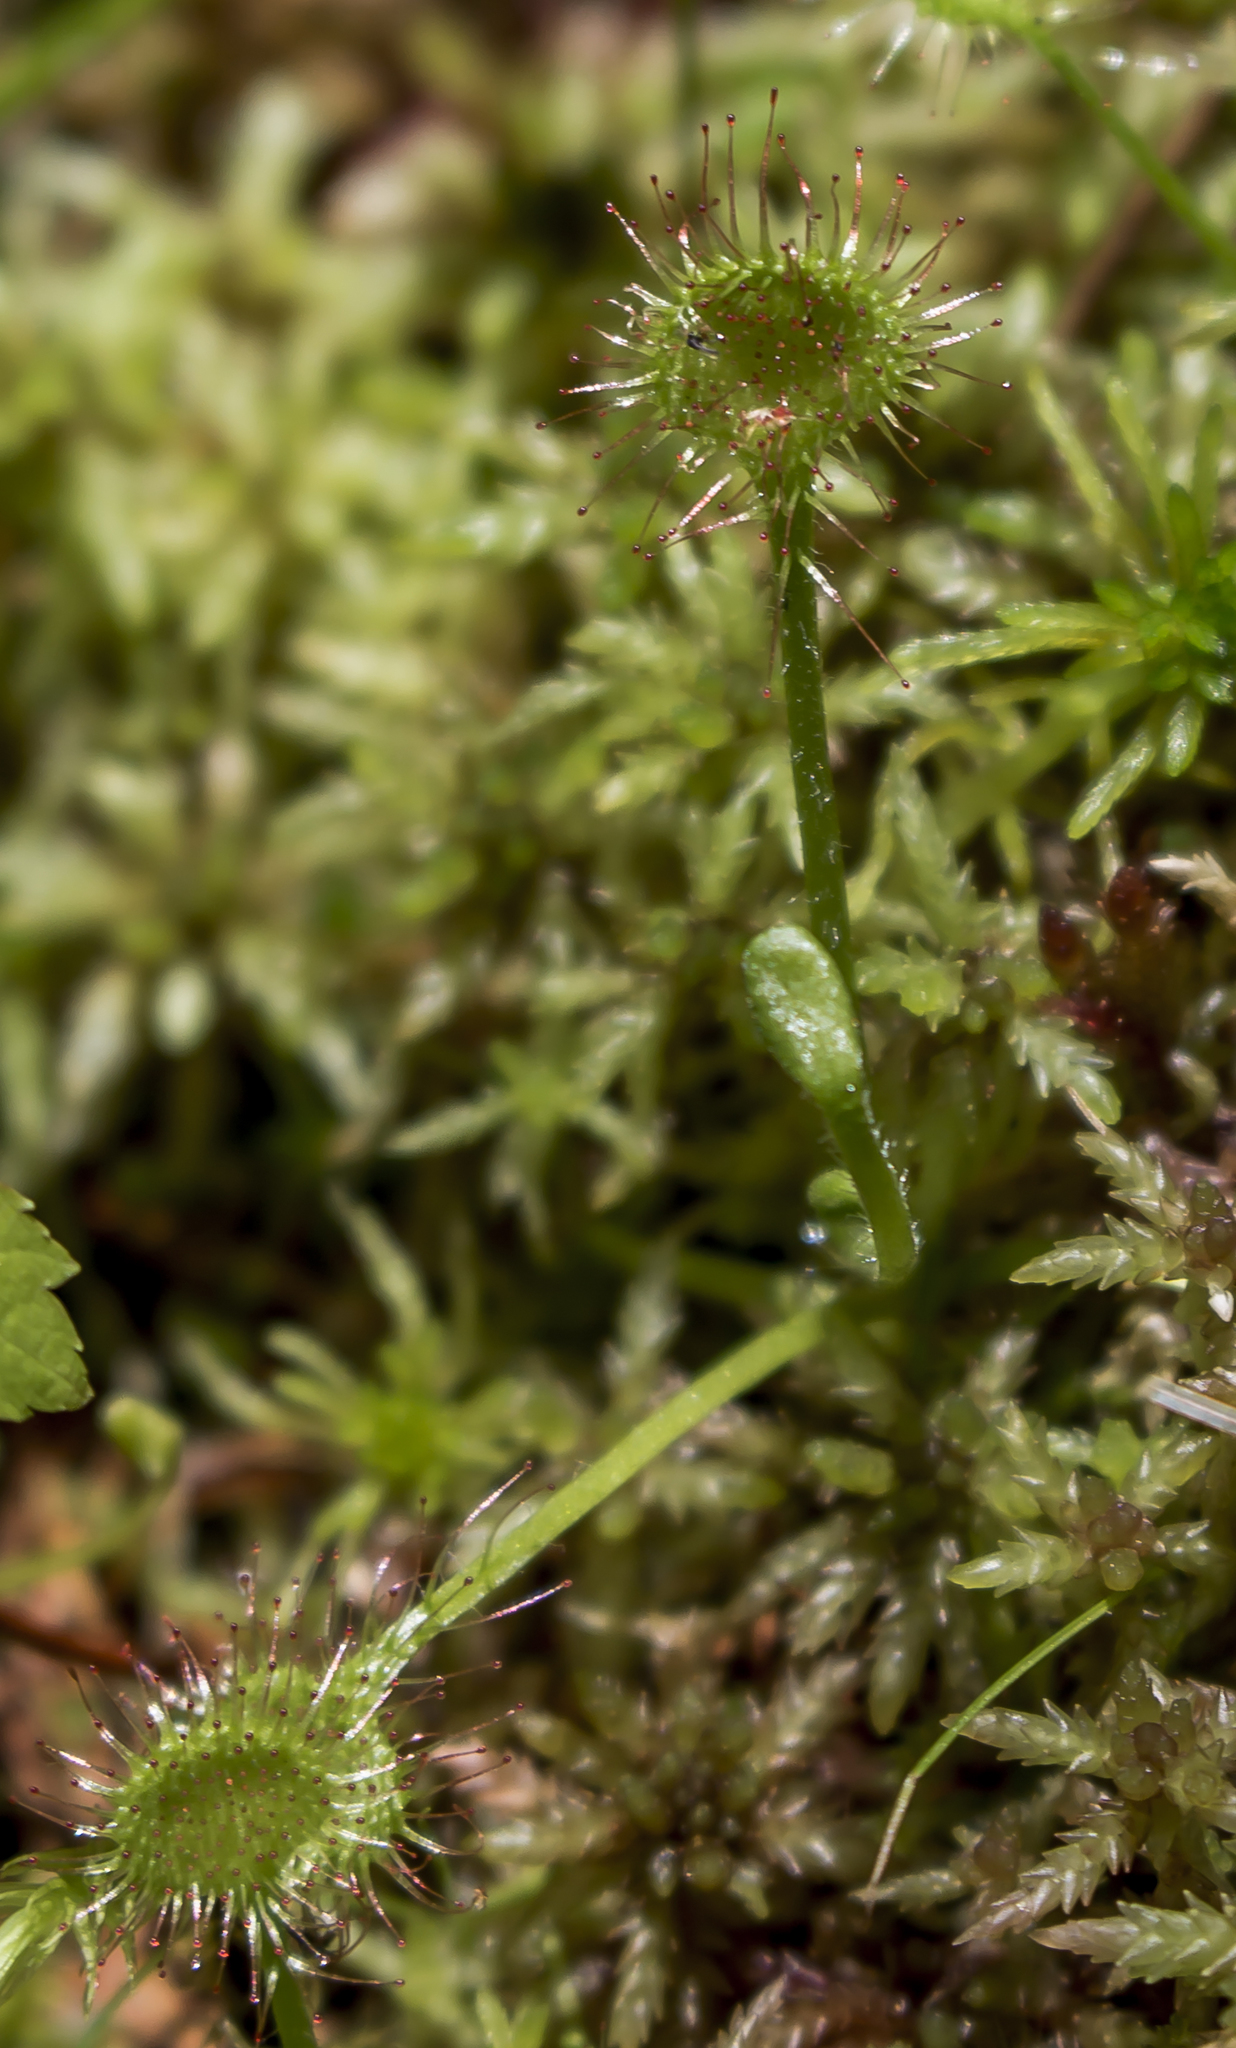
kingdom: Plantae
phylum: Tracheophyta
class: Magnoliopsida
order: Caryophyllales
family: Droseraceae
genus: Drosera
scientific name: Drosera rotundifolia
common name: Round-leaved sundew
